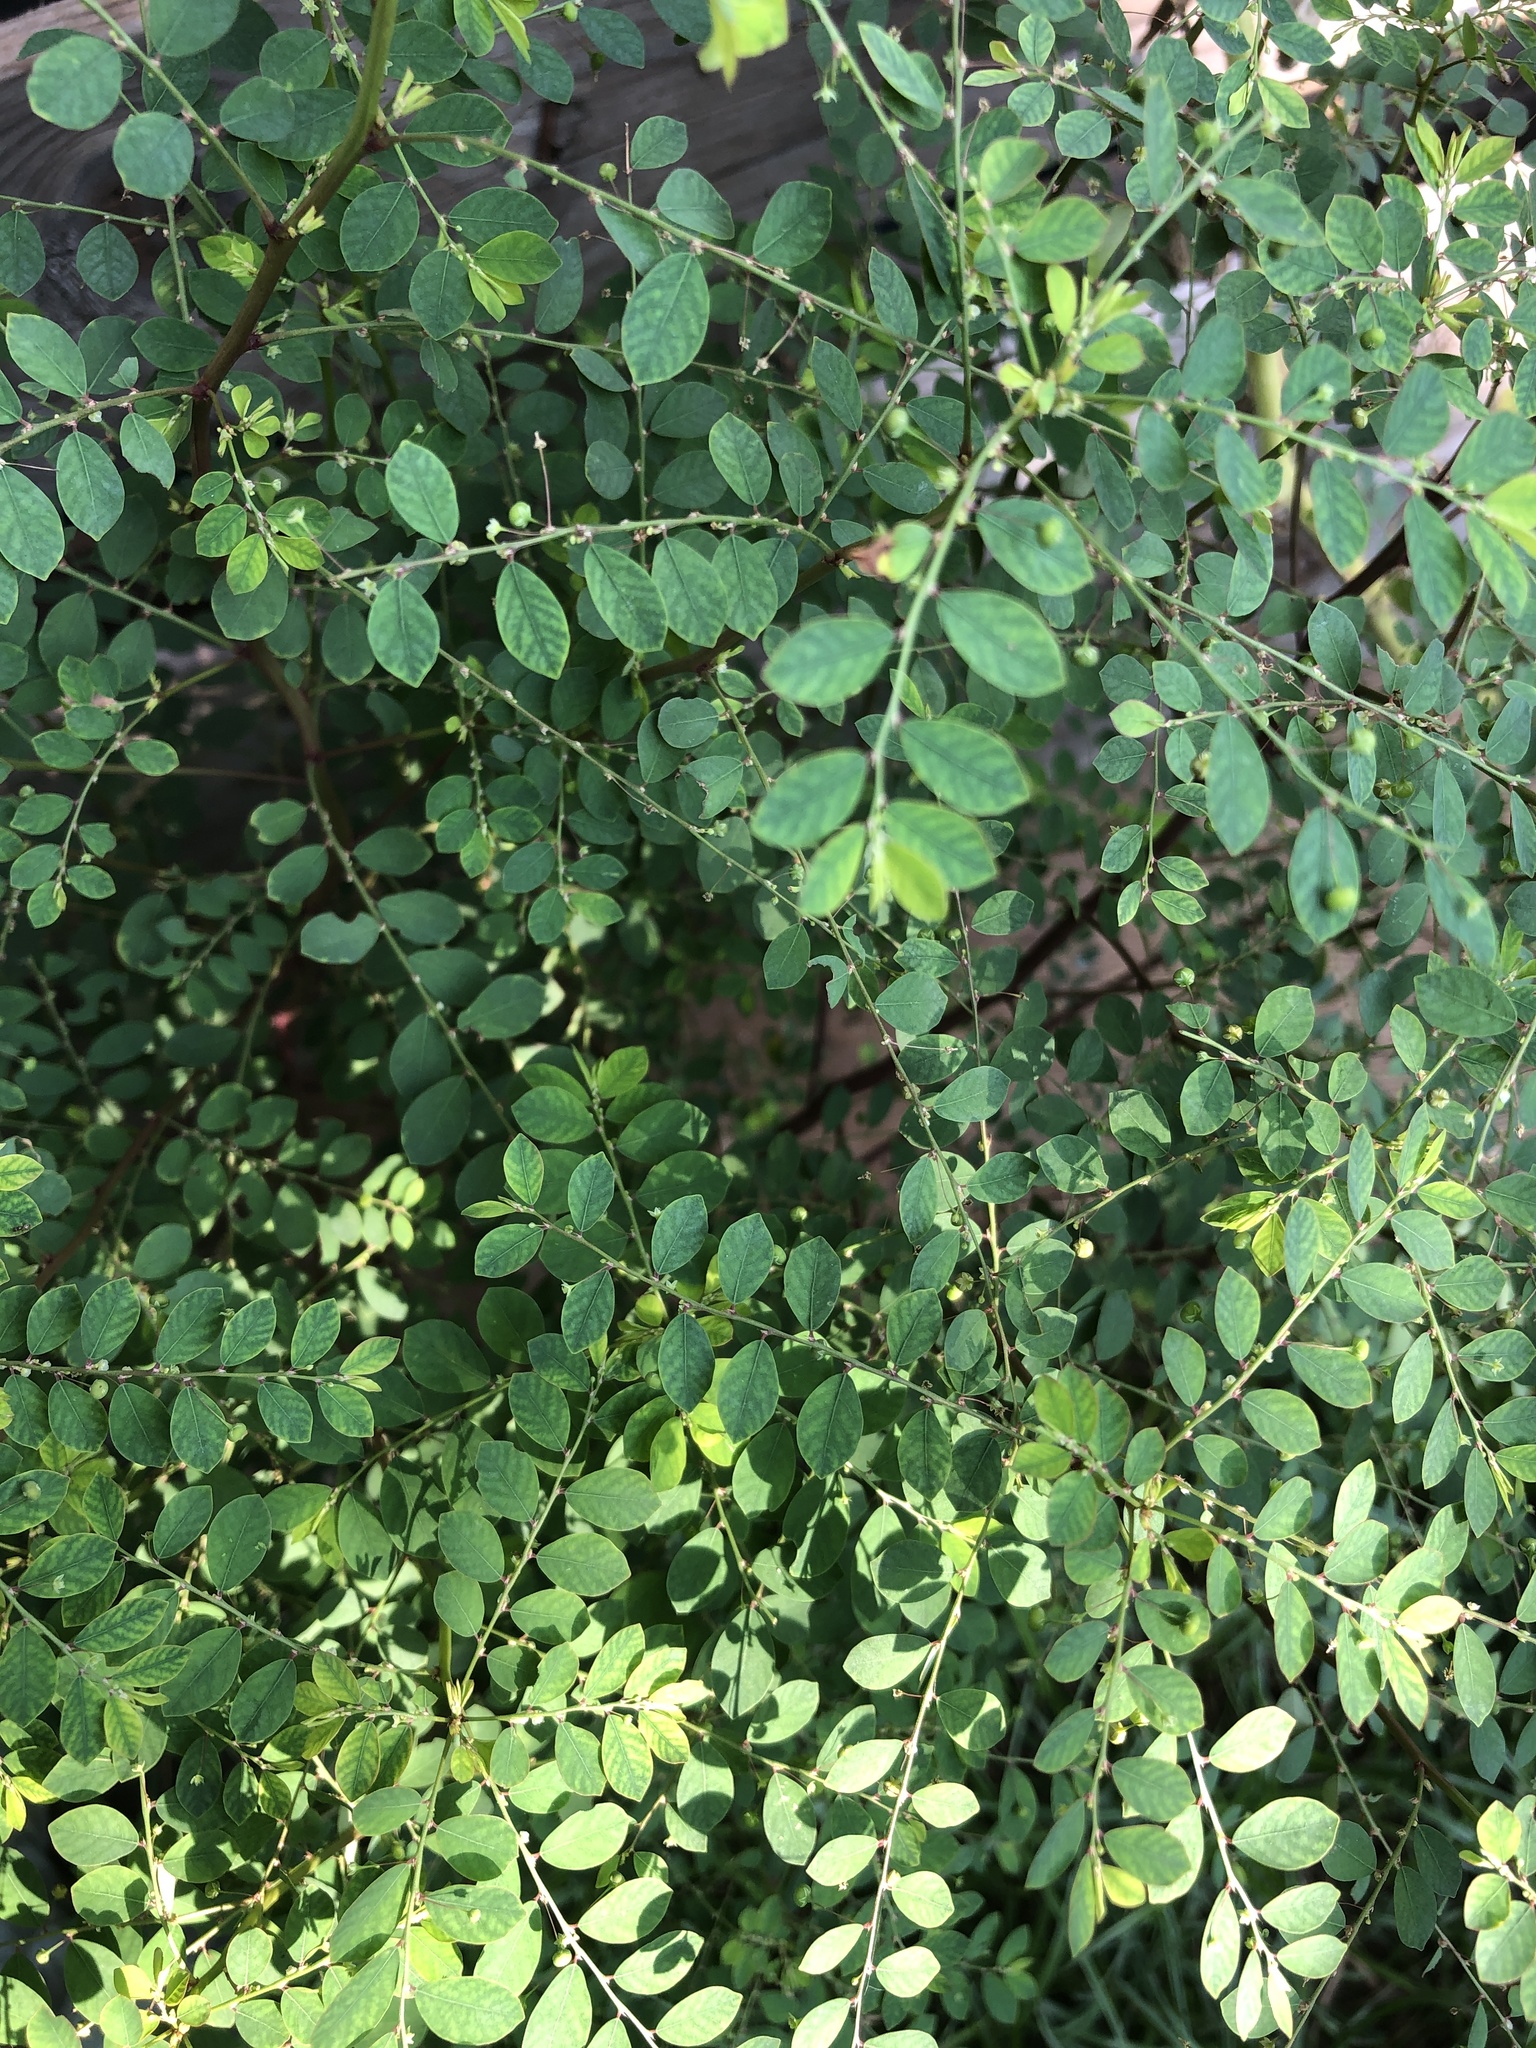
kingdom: Plantae
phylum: Tracheophyta
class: Magnoliopsida
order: Malpighiales
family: Phyllanthaceae
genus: Phyllanthus
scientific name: Phyllanthus tenellus
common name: Mascarene island leaf-flower
